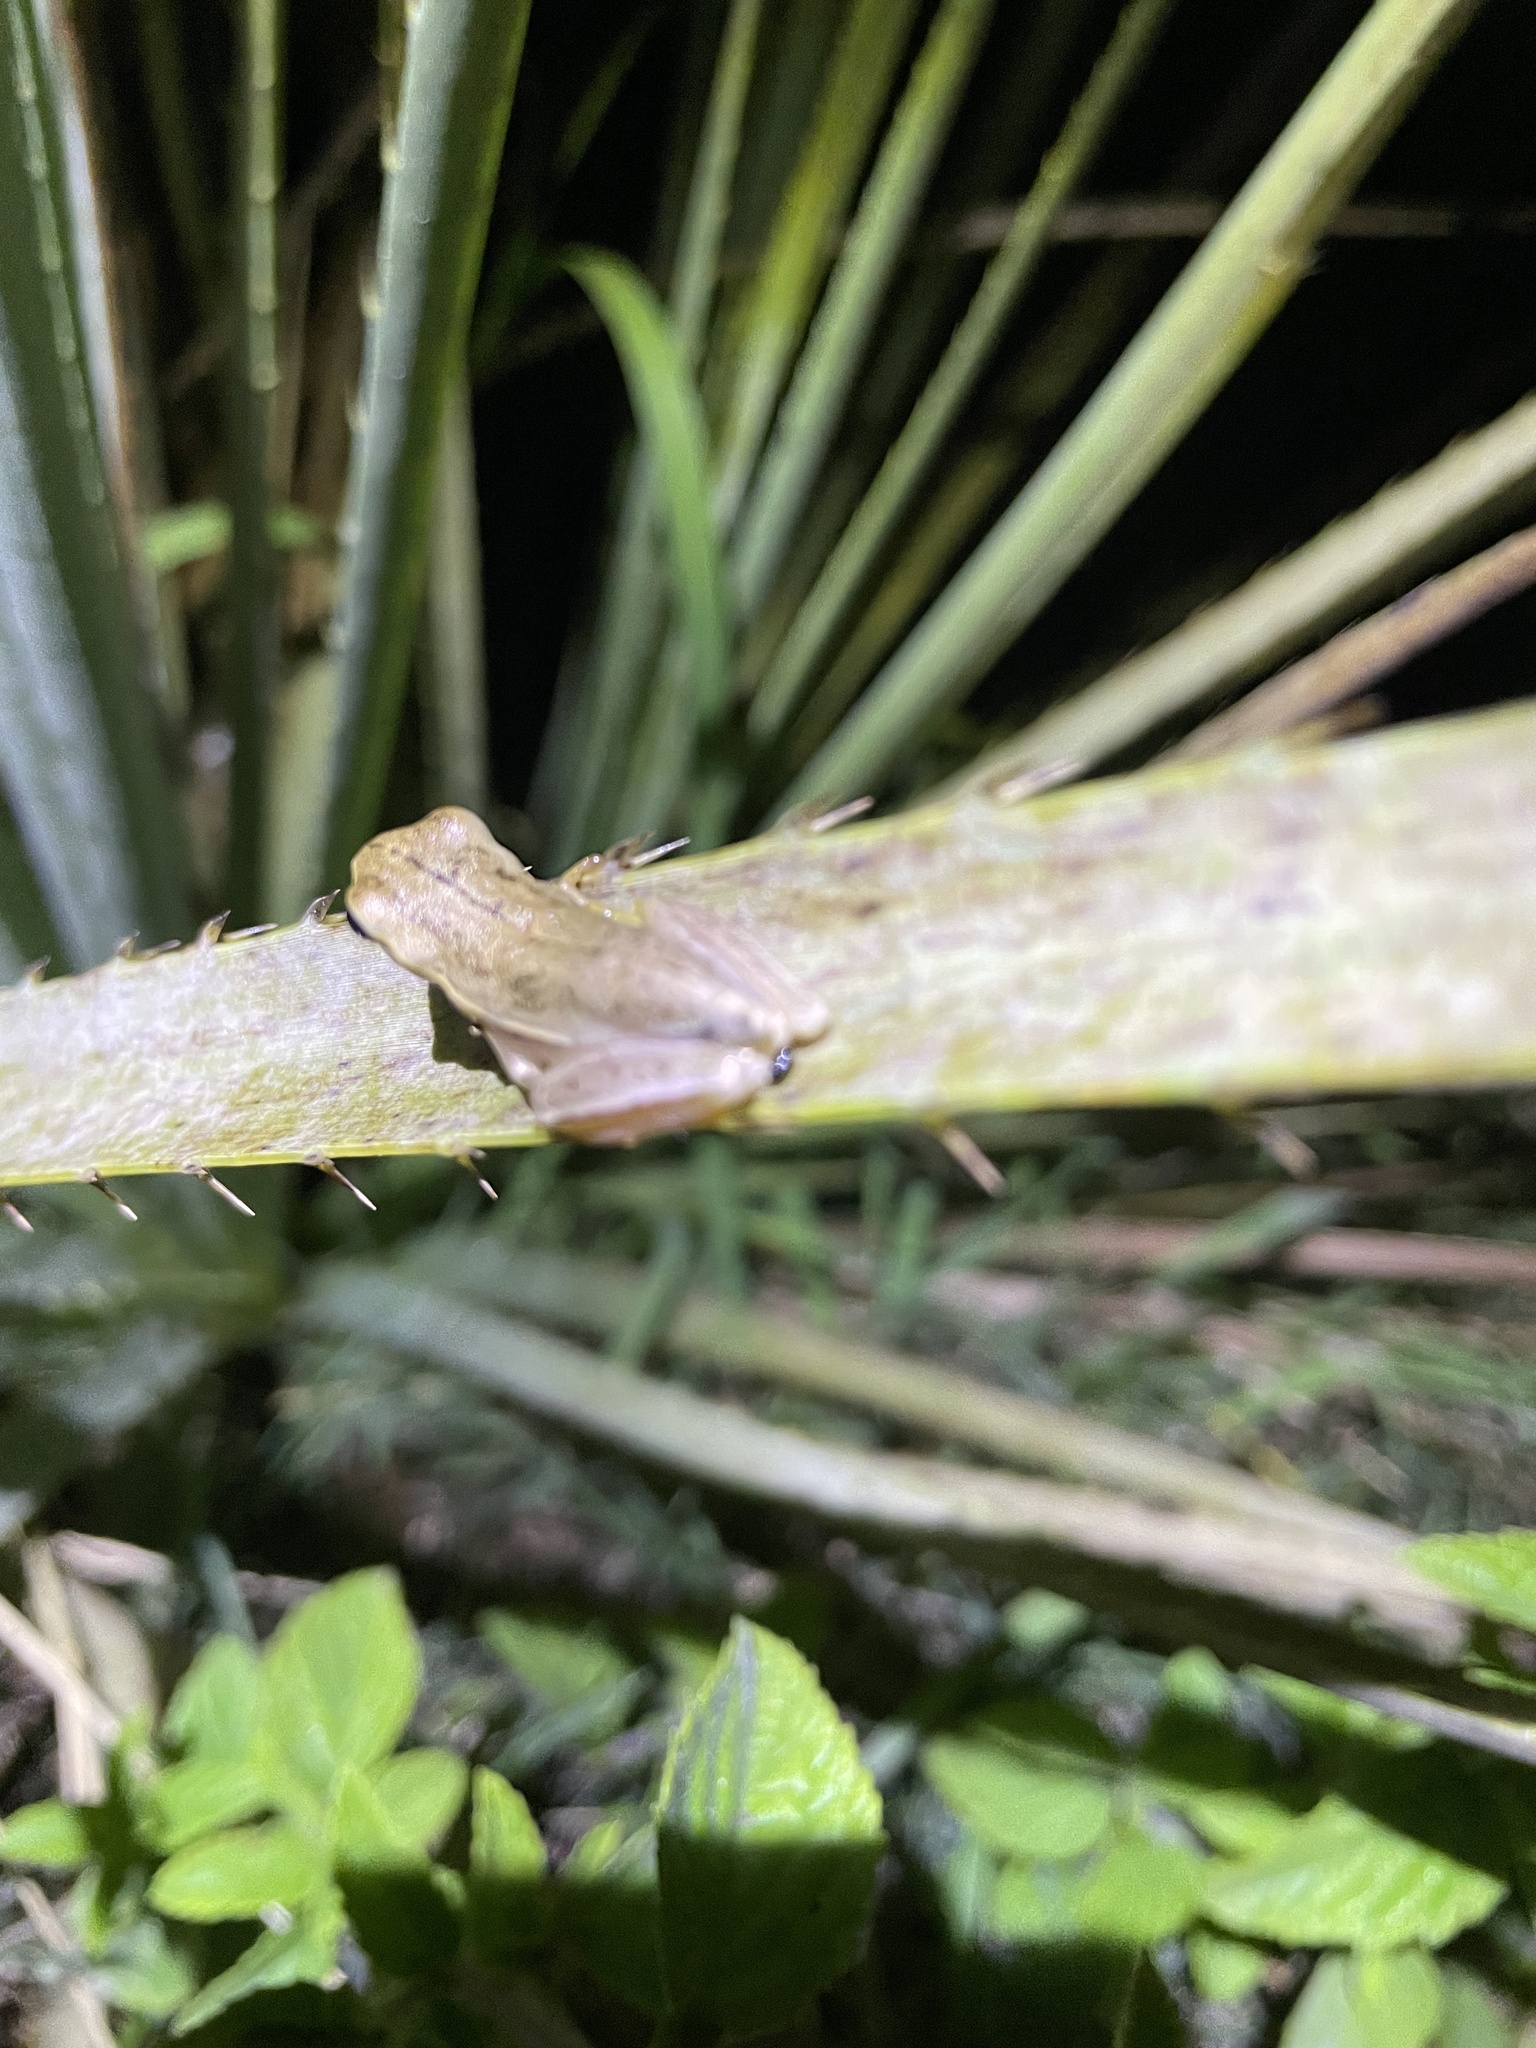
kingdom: Animalia
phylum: Chordata
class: Amphibia
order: Anura
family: Hylidae
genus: Boana
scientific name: Boana pulchella
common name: Montevideo treefrog
